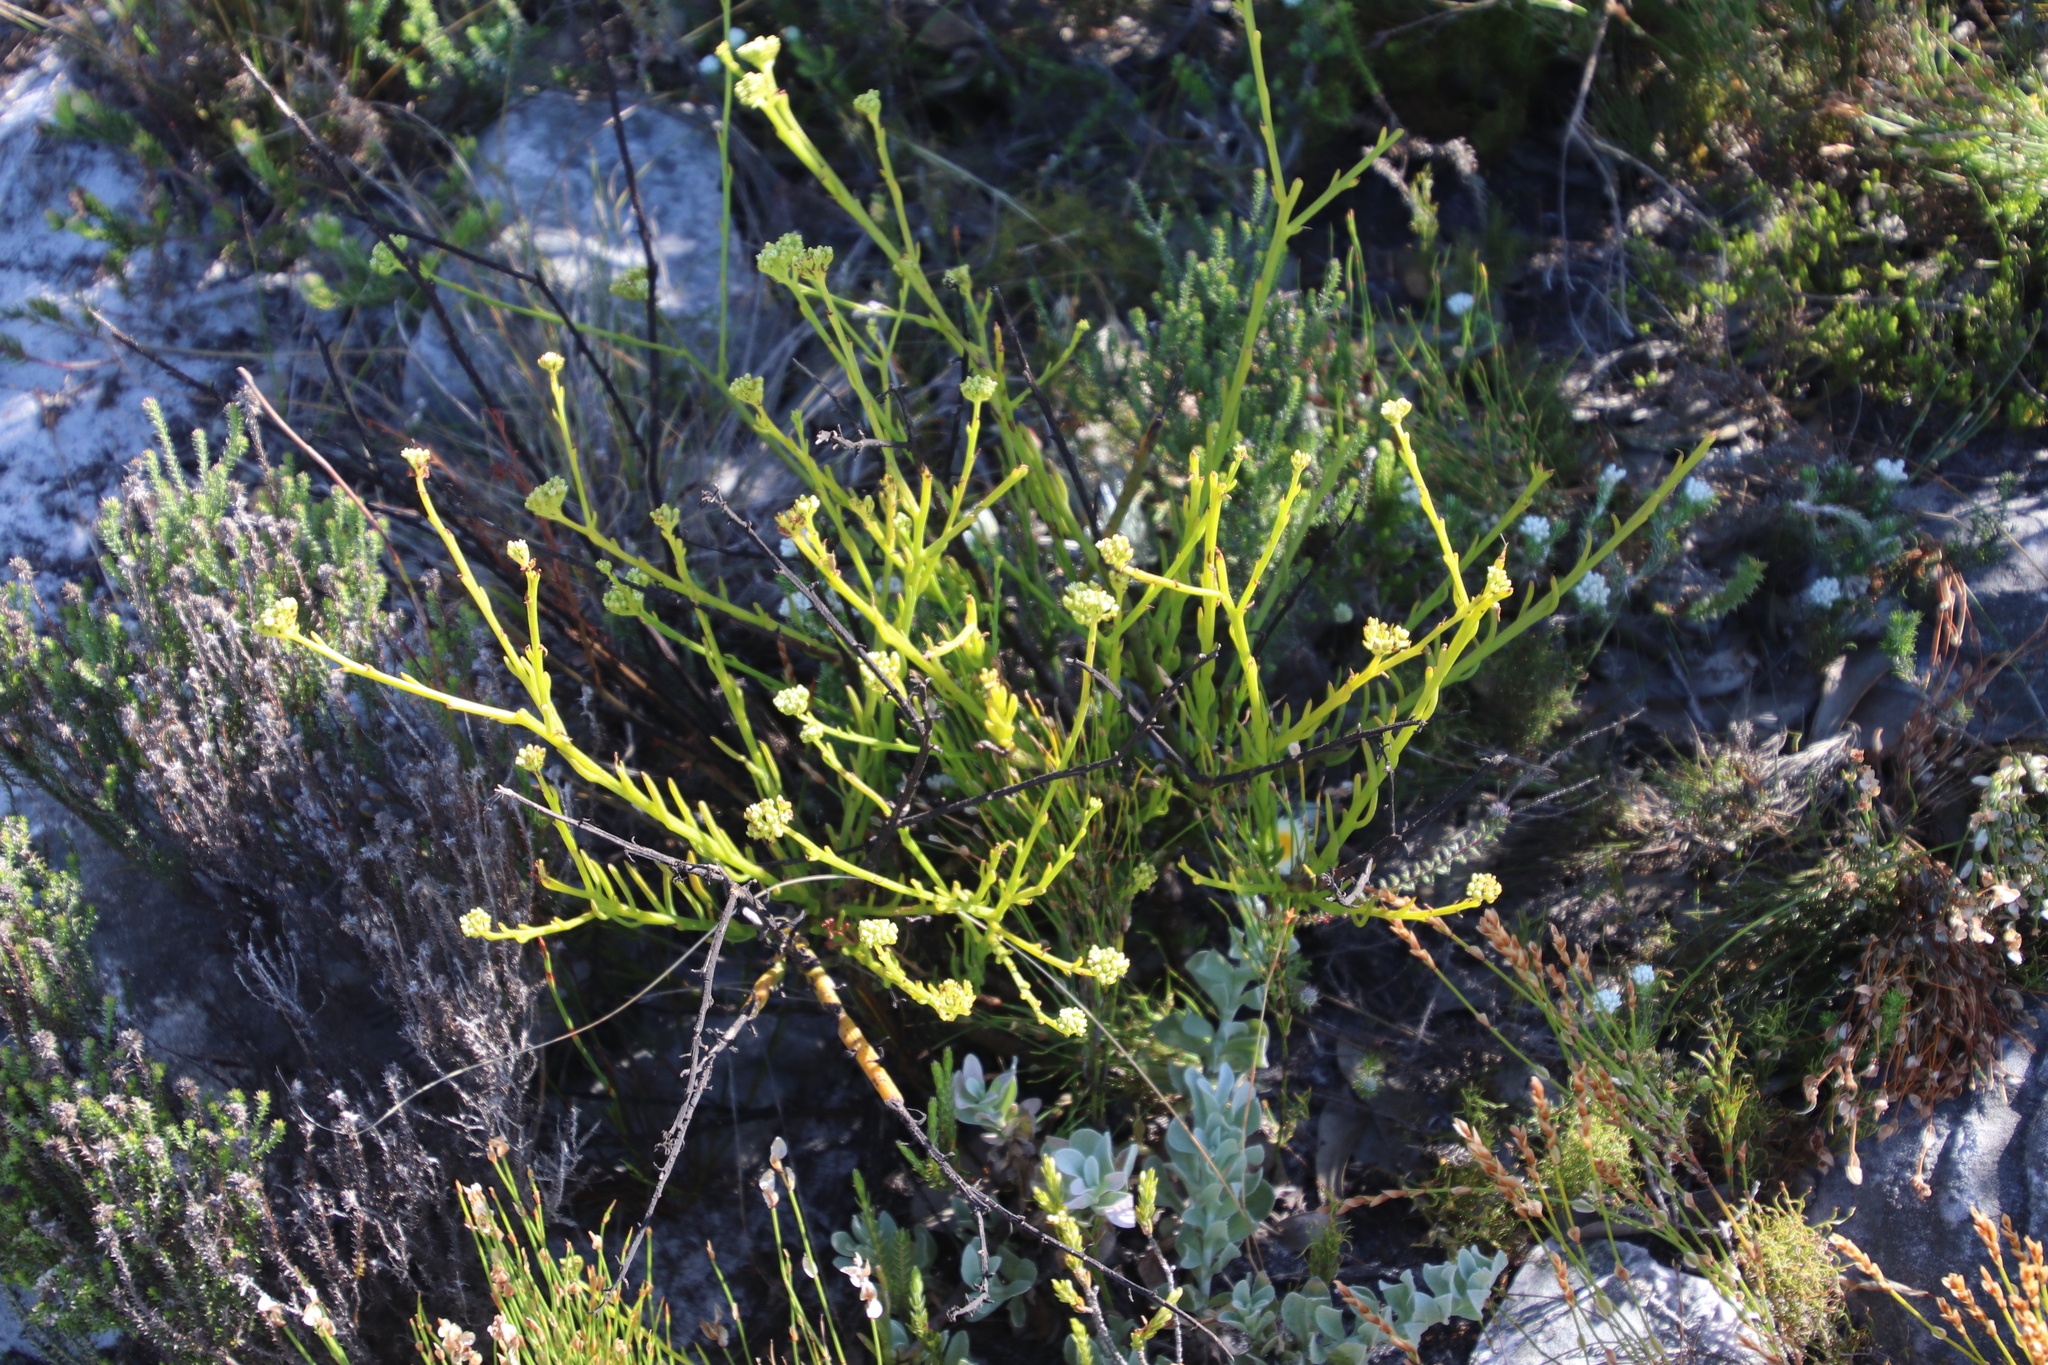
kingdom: Plantae
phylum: Tracheophyta
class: Magnoliopsida
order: Santalales
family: Thesiaceae
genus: Thesium
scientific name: Thesium strictum
